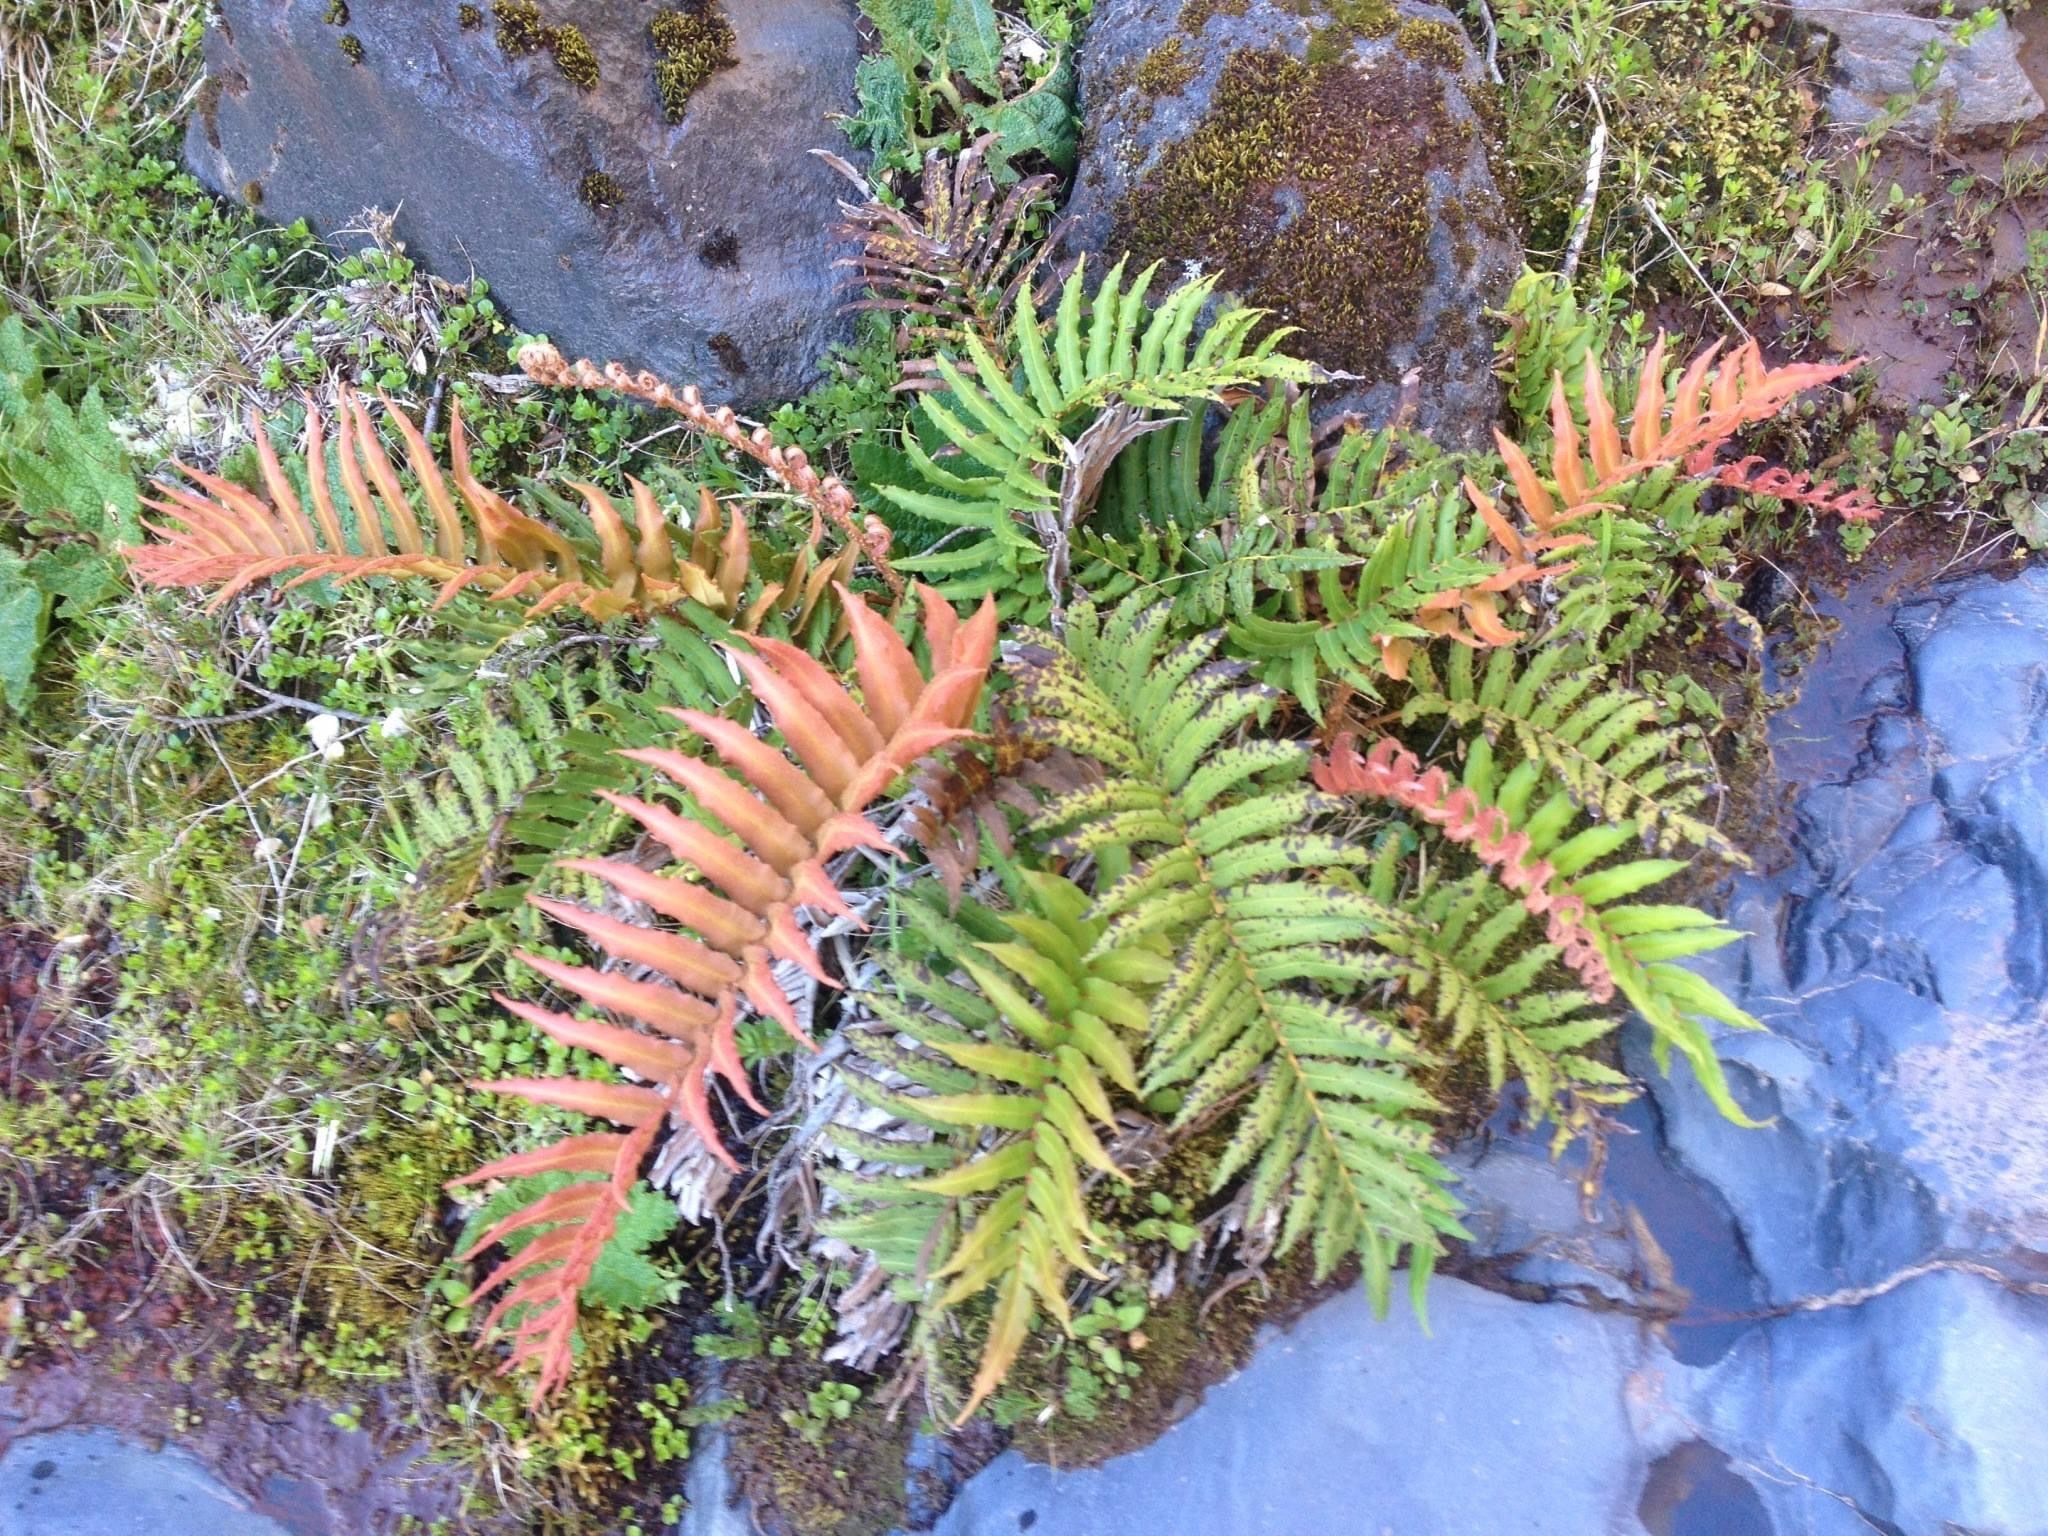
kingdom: Plantae
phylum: Tracheophyta
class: Polypodiopsida
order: Polypodiales
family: Blechnaceae
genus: Parablechnum
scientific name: Parablechnum chilense
